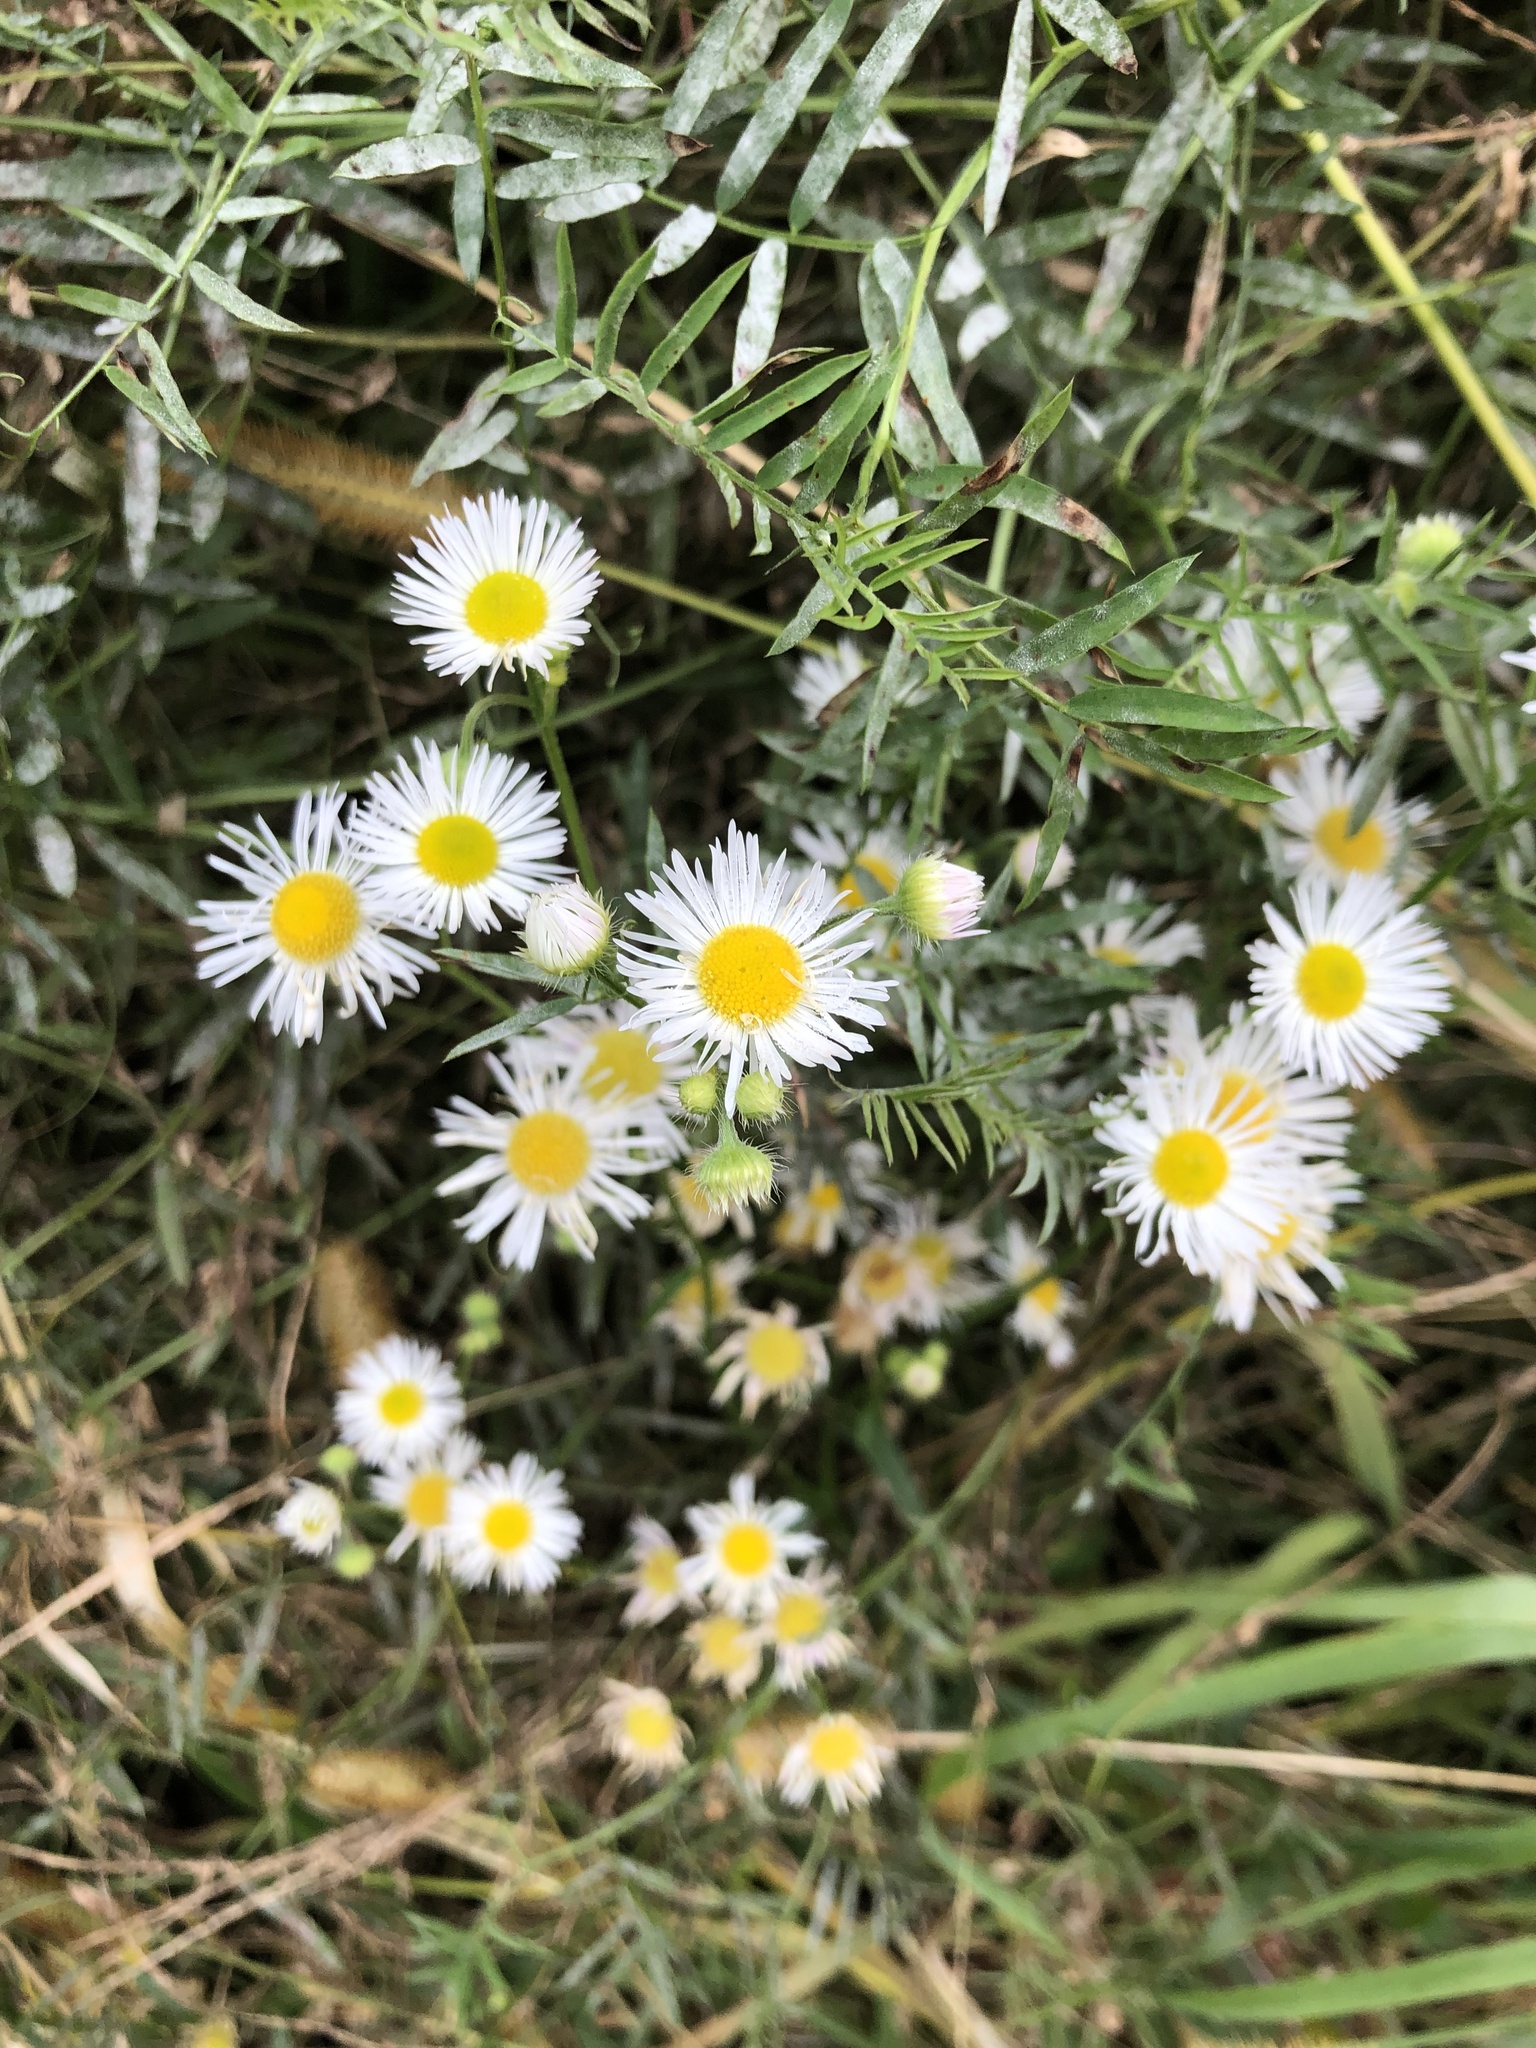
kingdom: Plantae
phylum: Tracheophyta
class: Magnoliopsida
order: Asterales
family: Asteraceae
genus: Erigeron
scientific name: Erigeron annuus
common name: Tall fleabane
